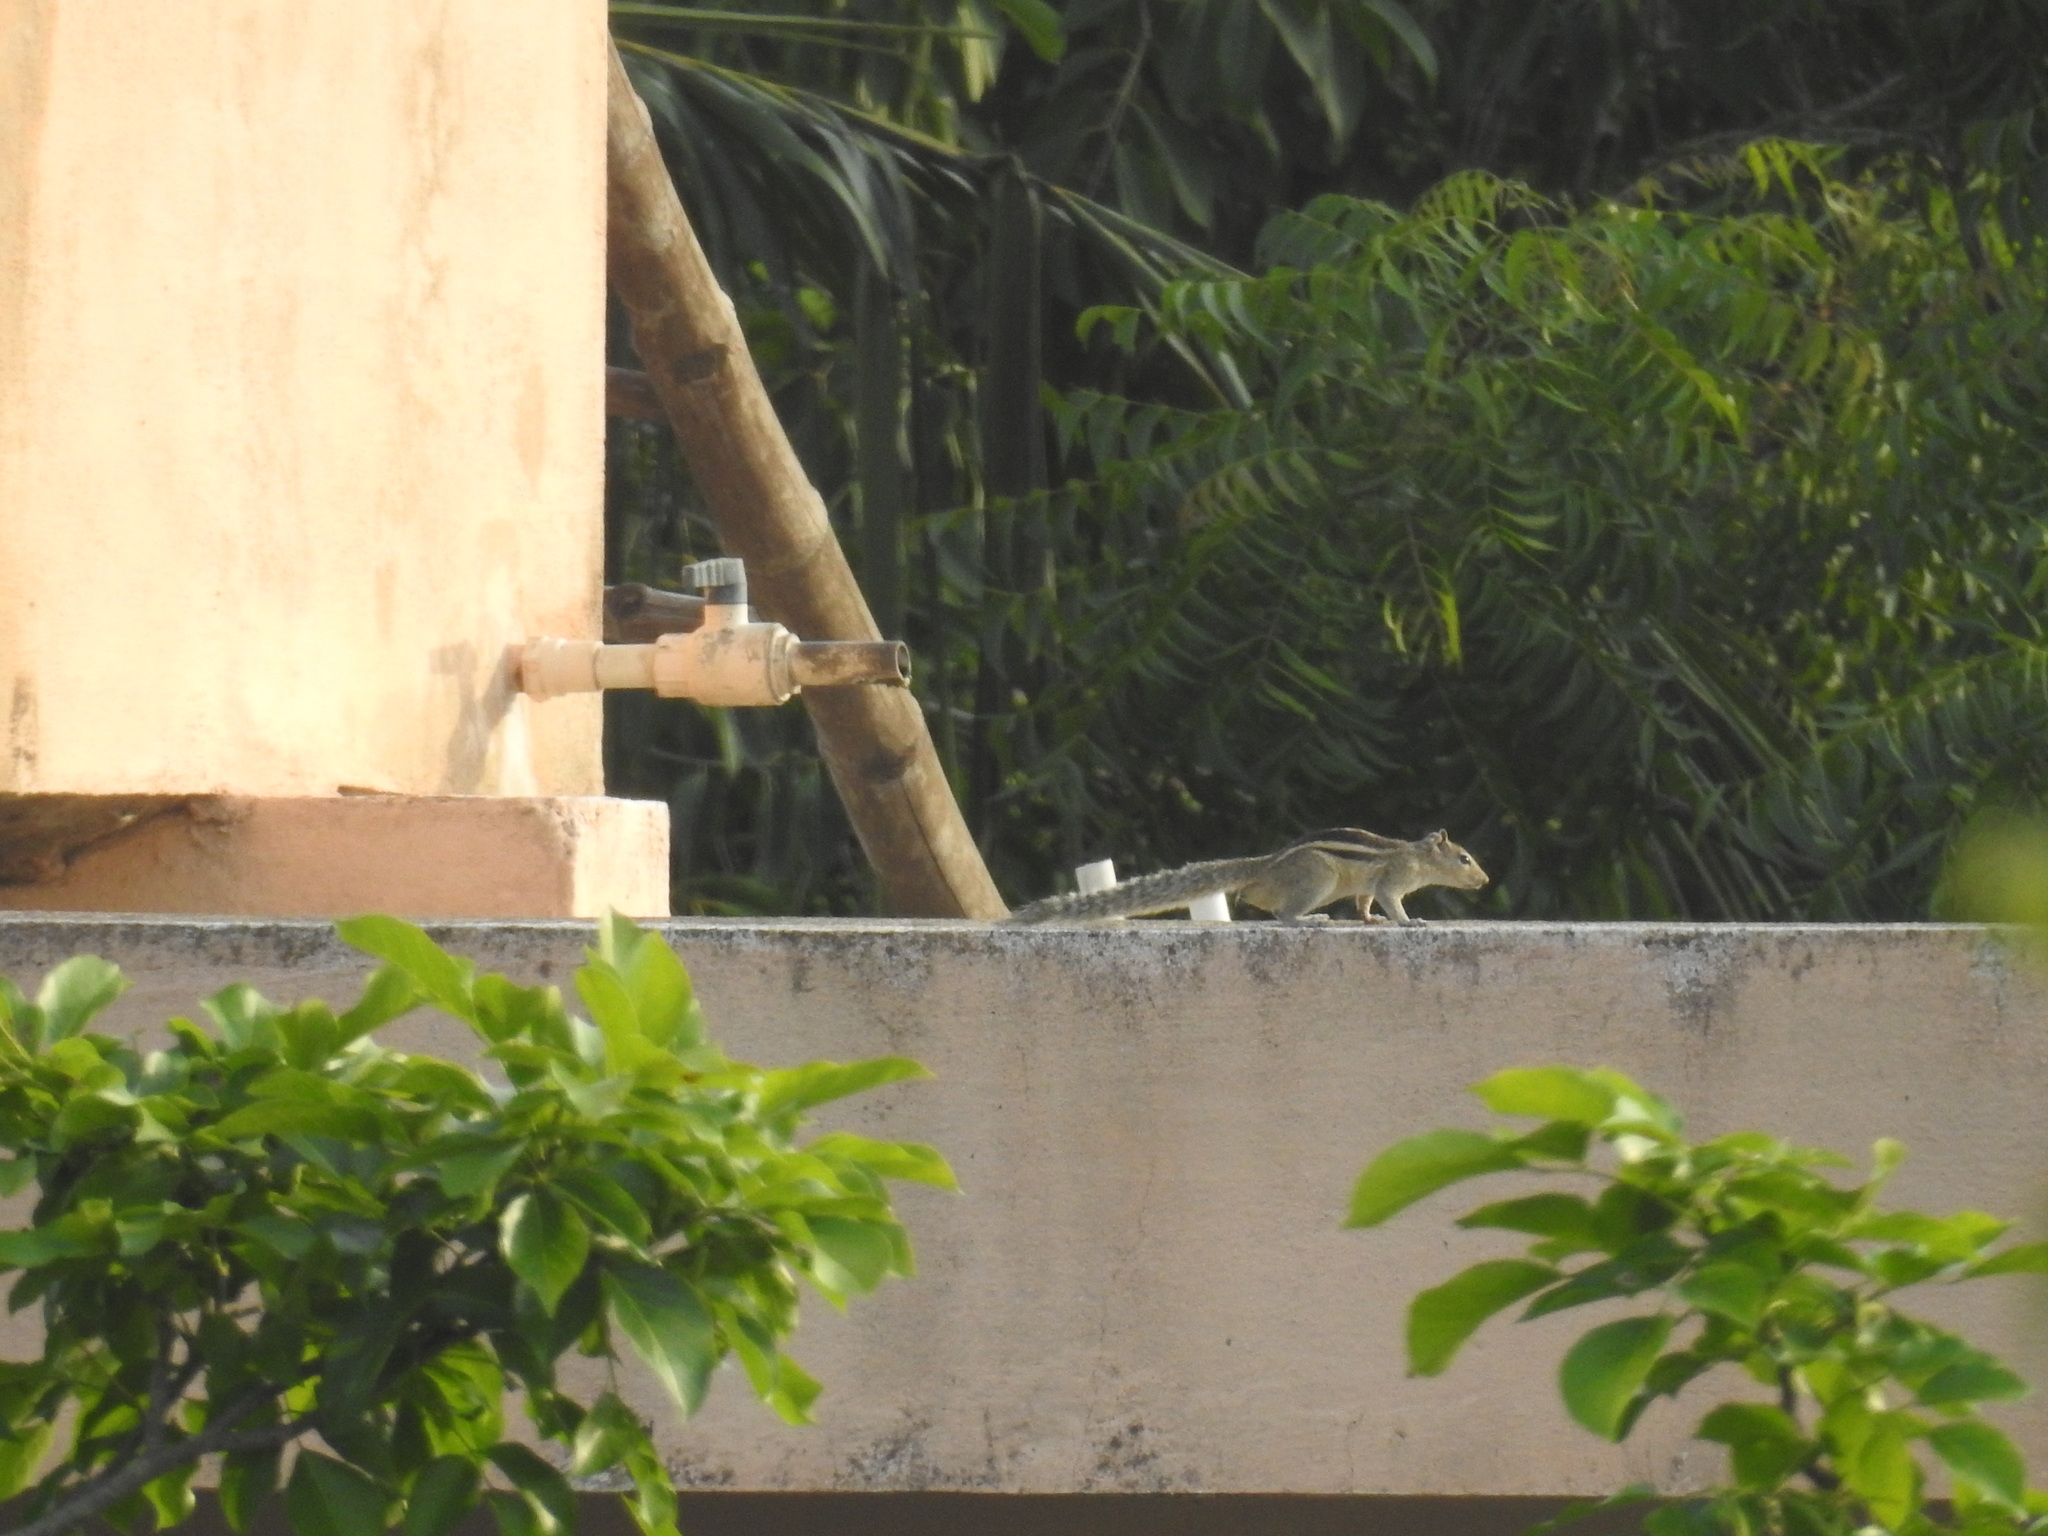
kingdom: Animalia
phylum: Chordata
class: Mammalia
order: Rodentia
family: Sciuridae
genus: Funambulus
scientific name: Funambulus palmarum
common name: Indian palm squirrel
